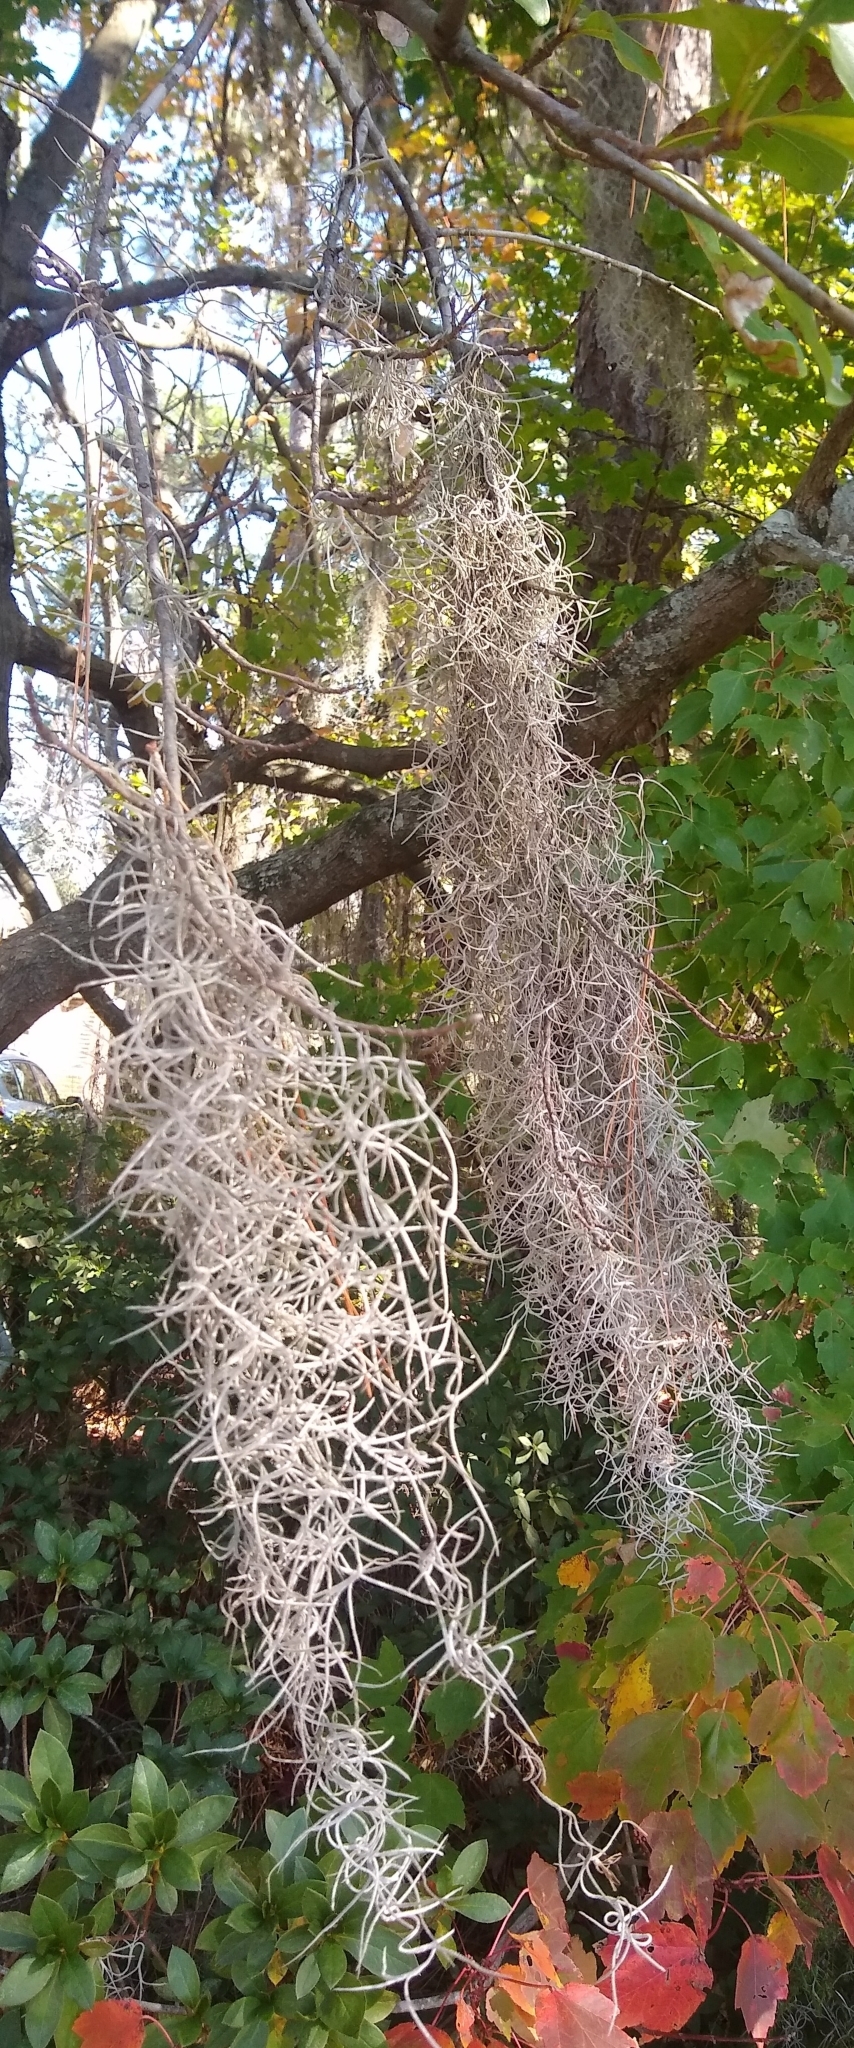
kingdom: Plantae
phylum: Tracheophyta
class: Liliopsida
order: Poales
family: Bromeliaceae
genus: Tillandsia
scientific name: Tillandsia usneoides
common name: Spanish moss
